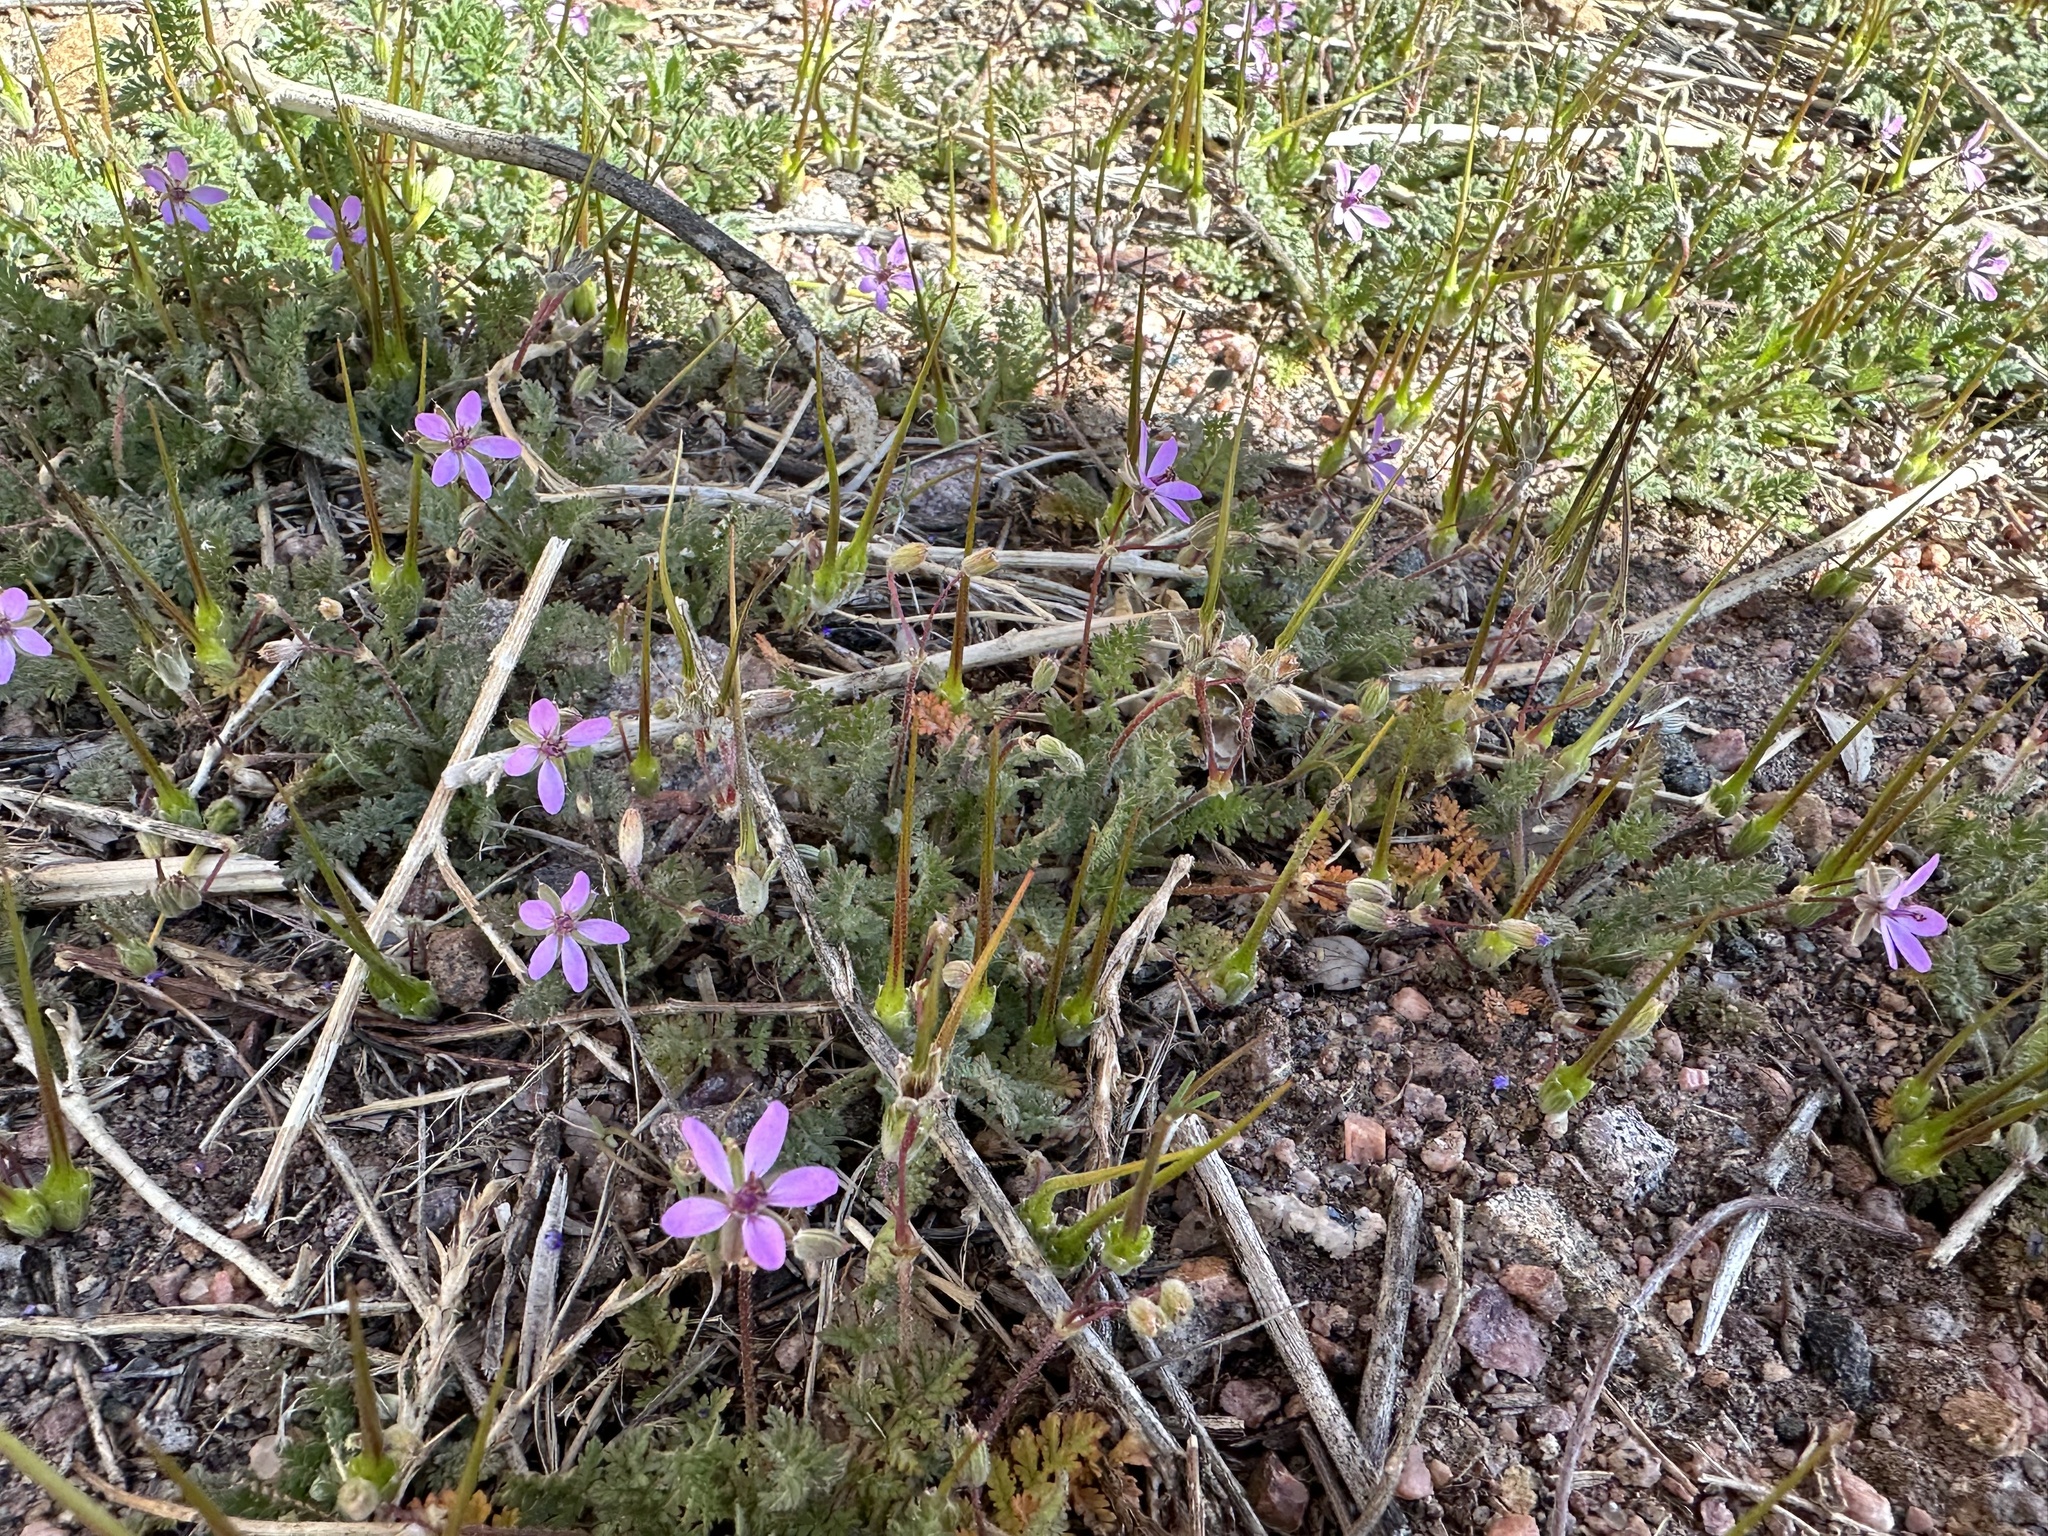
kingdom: Plantae
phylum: Tracheophyta
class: Magnoliopsida
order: Geraniales
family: Geraniaceae
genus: Erodium
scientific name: Erodium cicutarium
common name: Common stork's-bill
